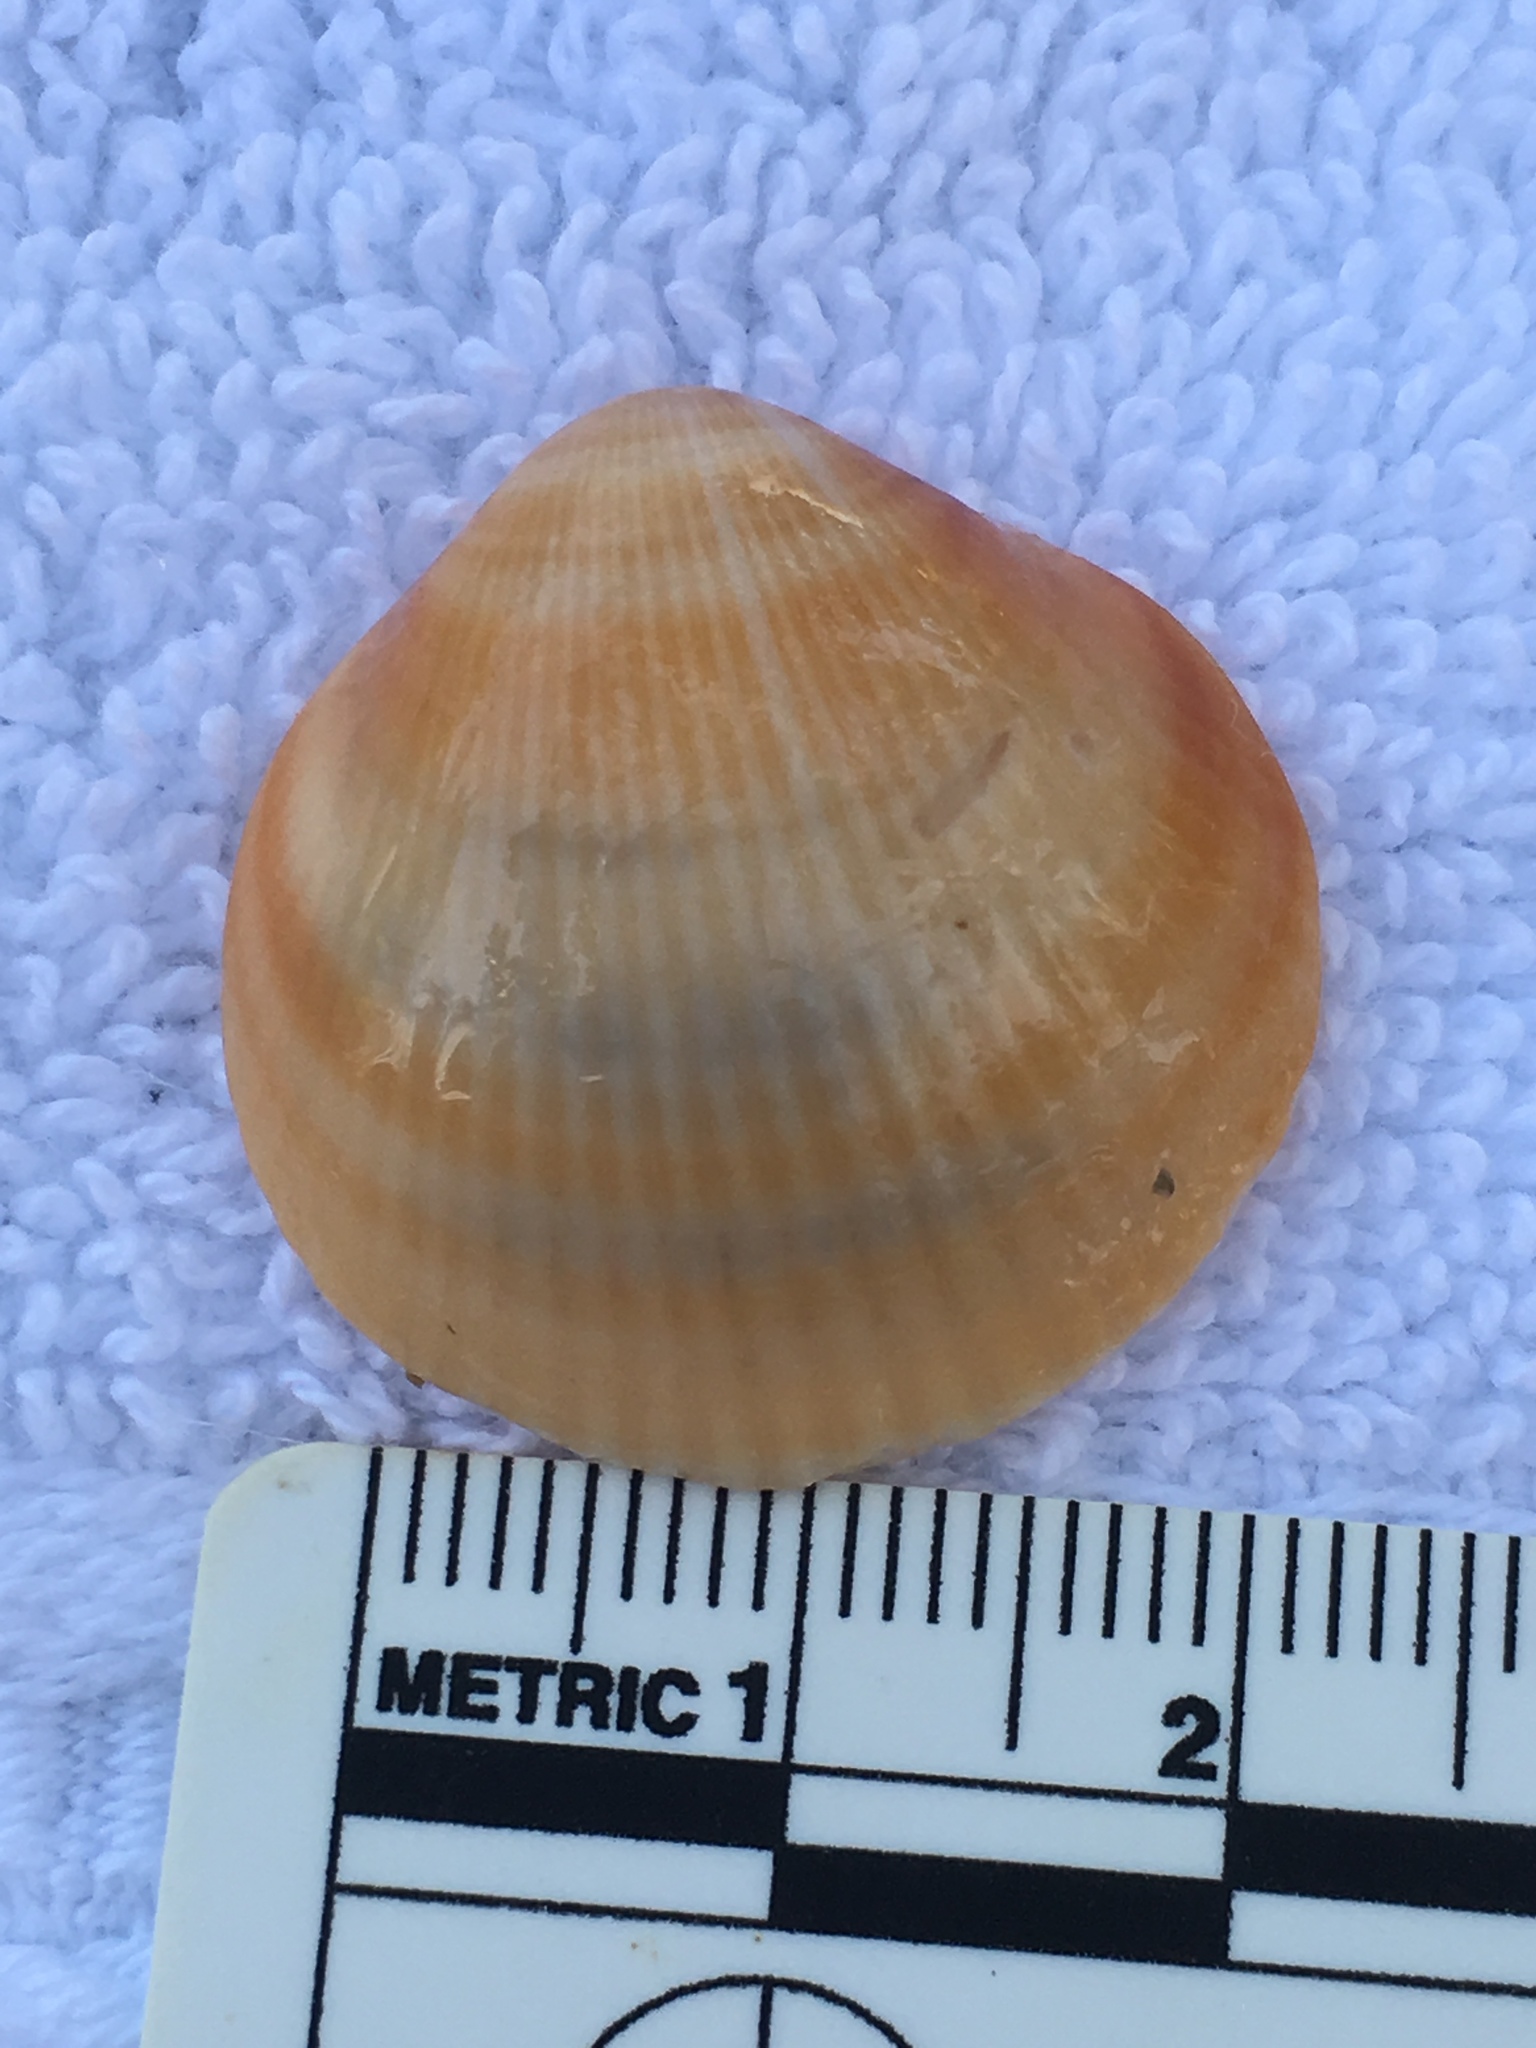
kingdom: Animalia
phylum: Mollusca
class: Bivalvia
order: Arcida
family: Glycymerididae
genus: Glycymeris
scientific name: Glycymeris spectralis
